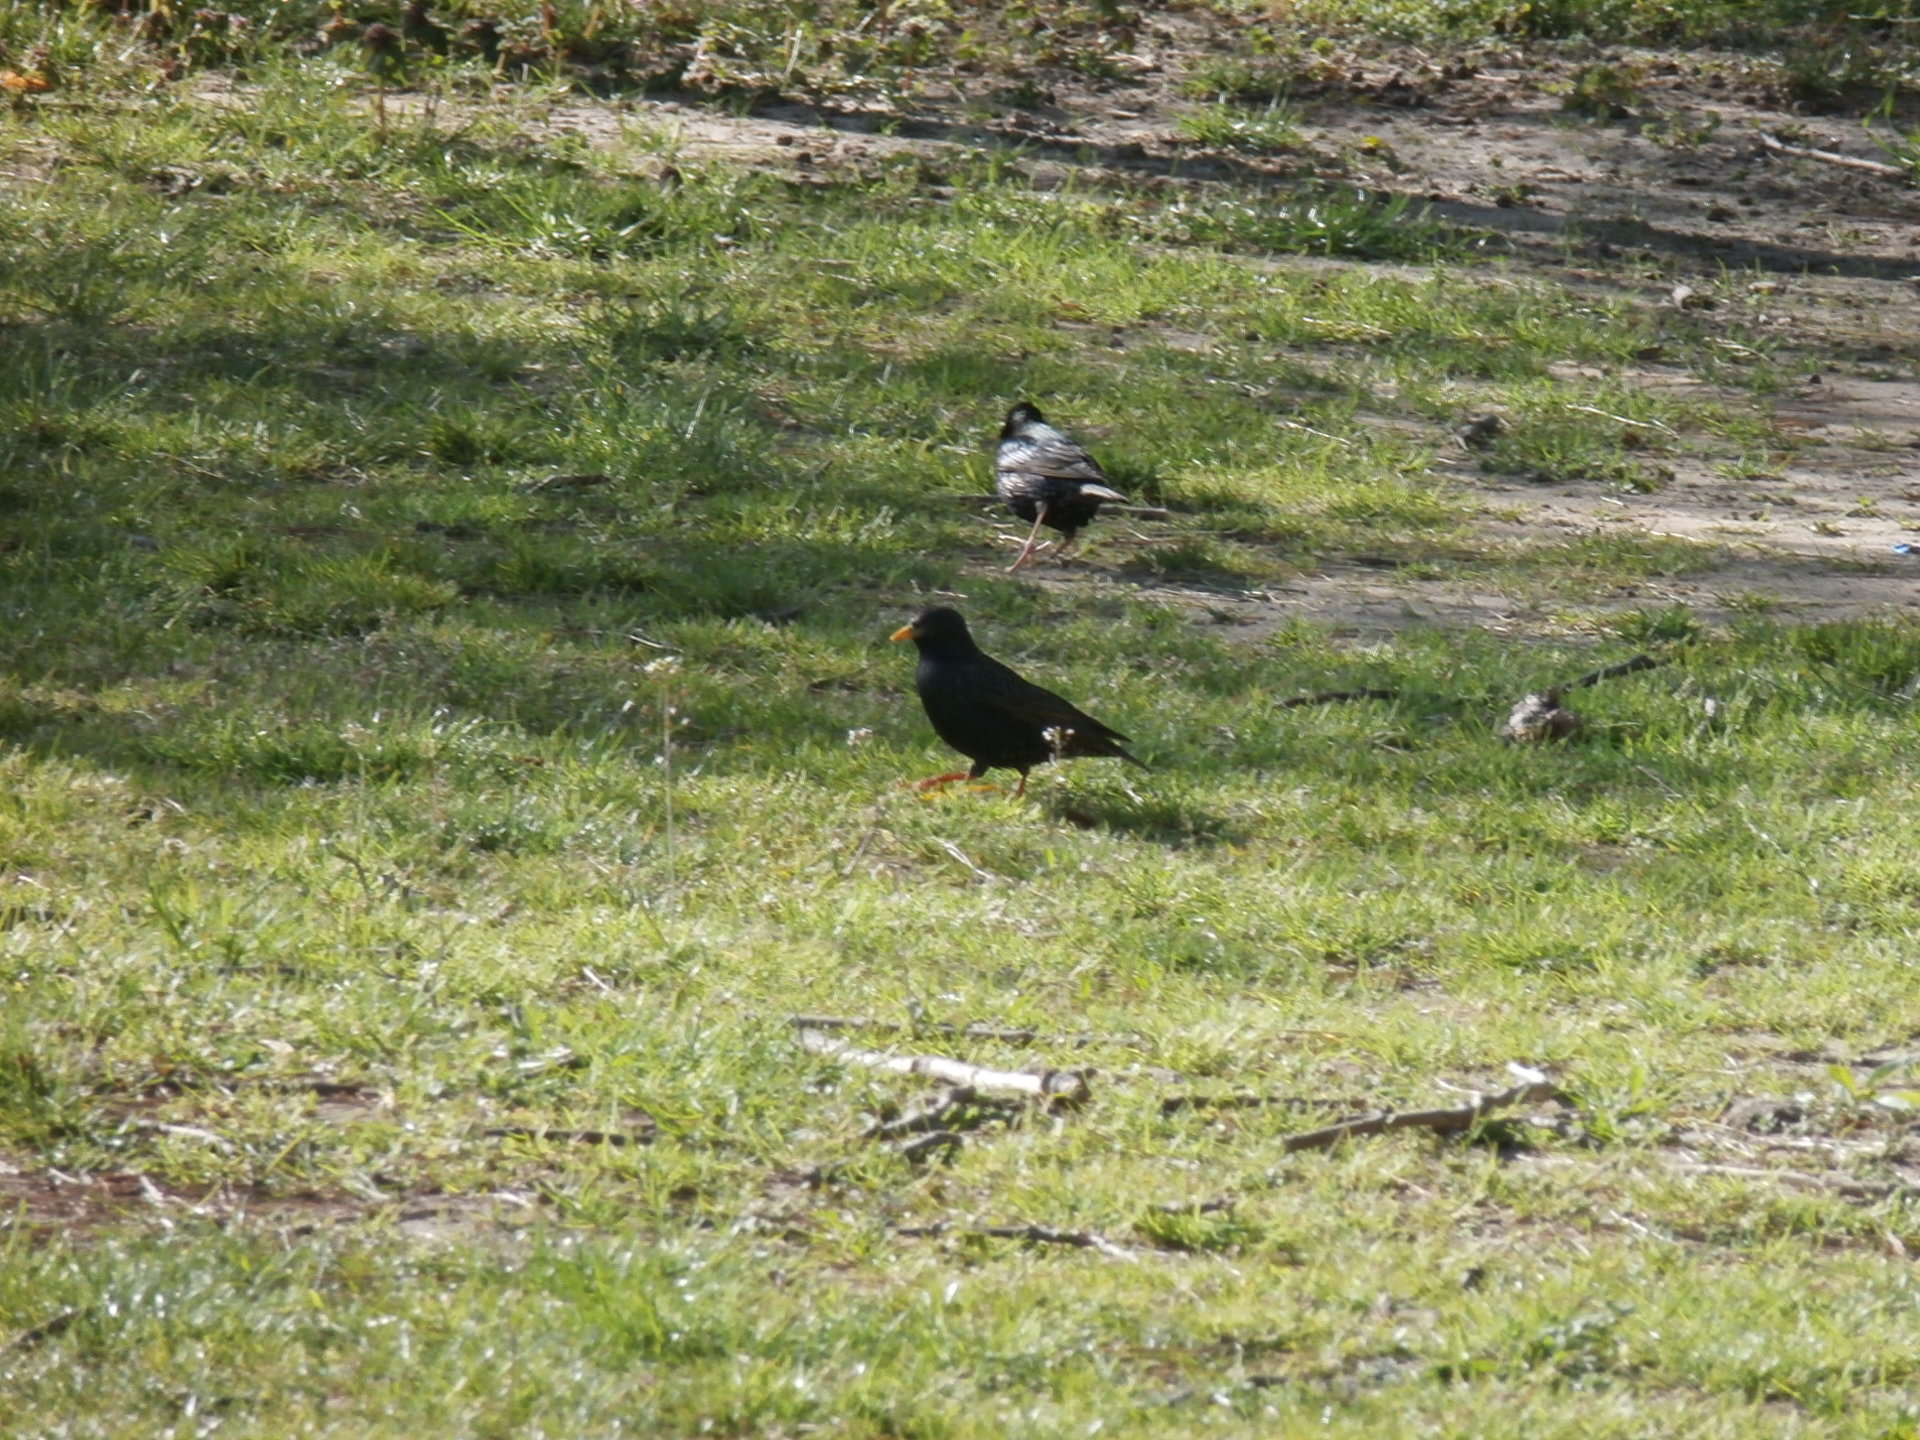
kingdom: Animalia
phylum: Chordata
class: Aves
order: Passeriformes
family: Sturnidae
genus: Sturnus
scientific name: Sturnus vulgaris
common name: Common starling
